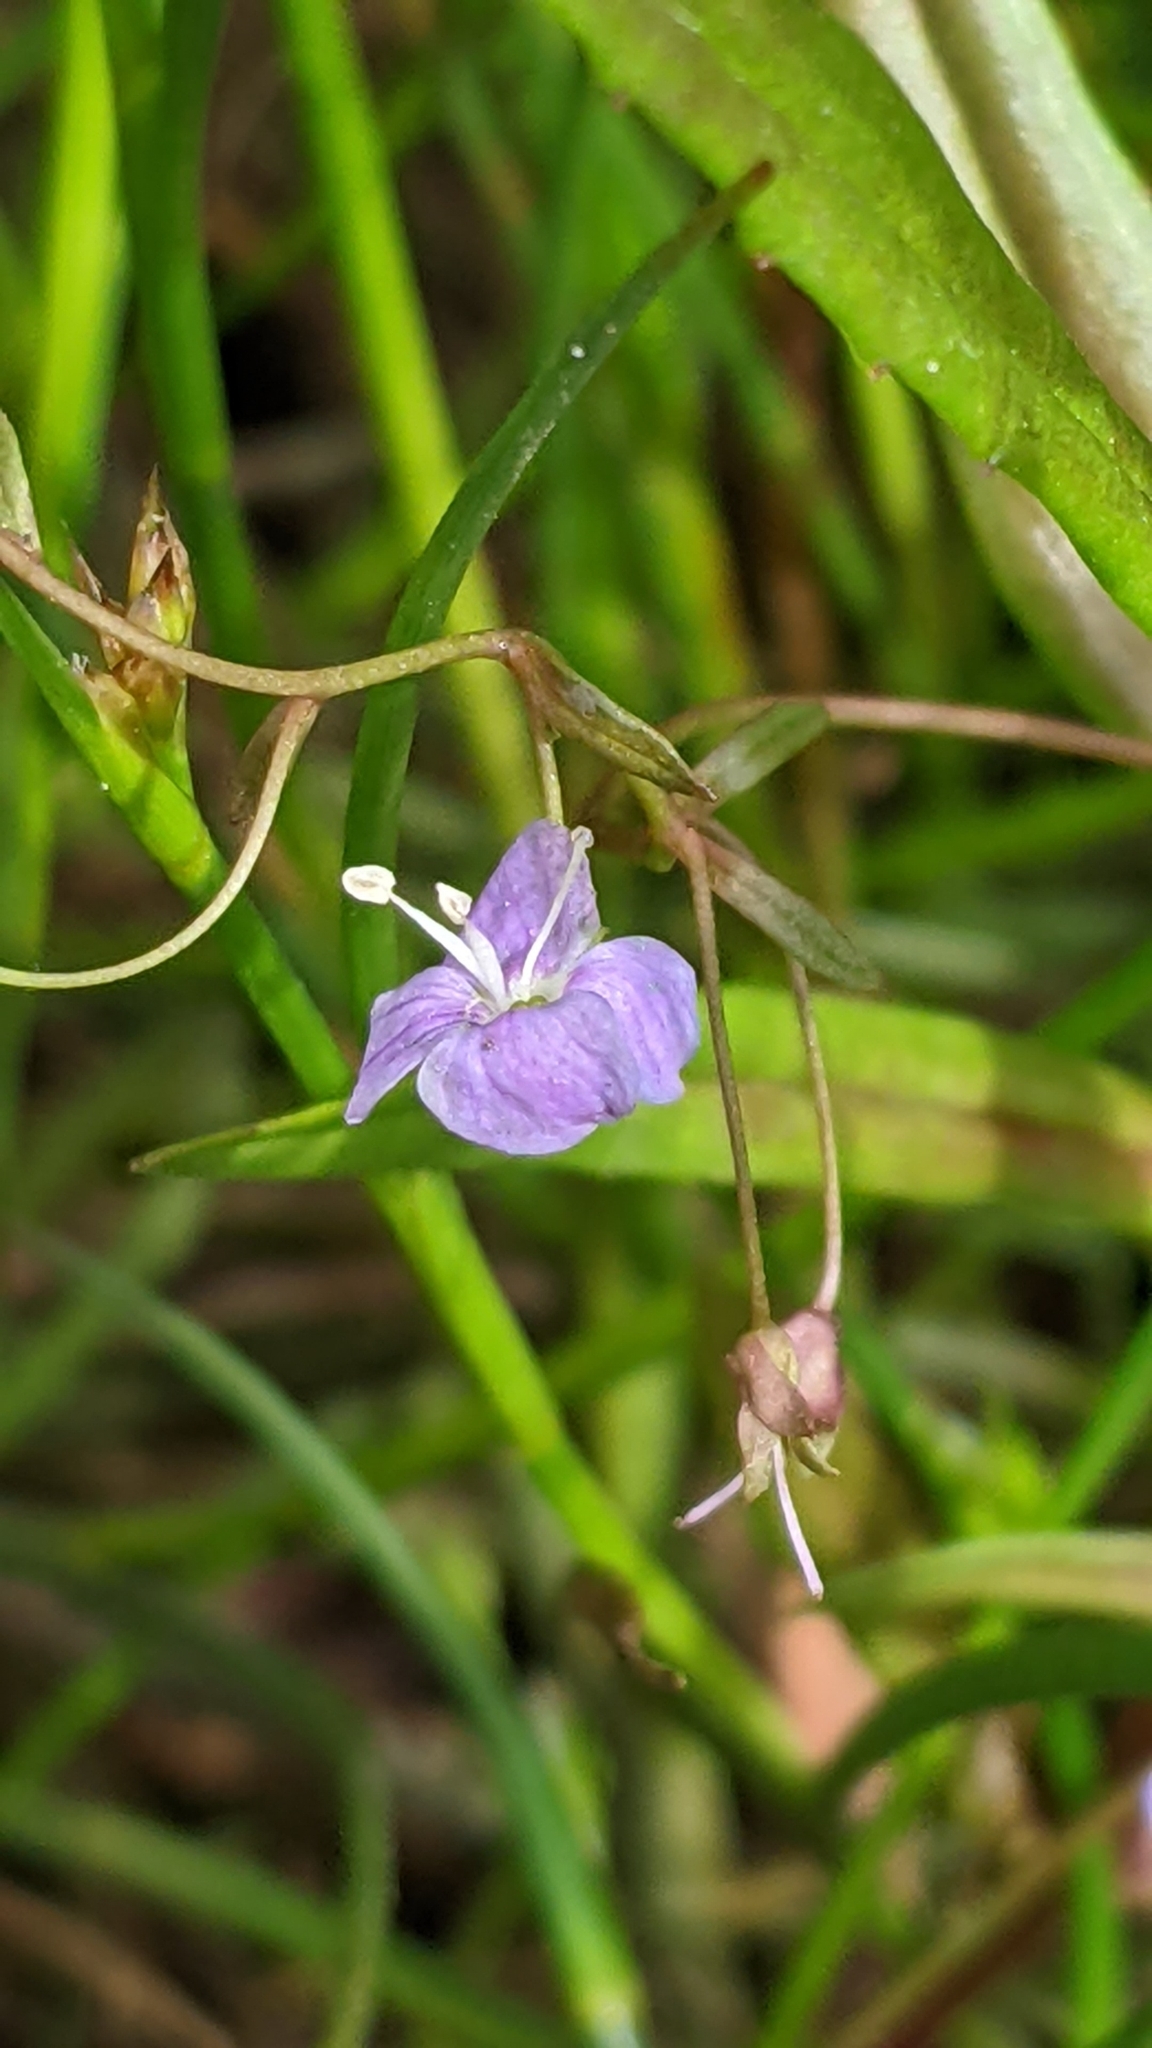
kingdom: Plantae
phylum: Tracheophyta
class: Magnoliopsida
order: Lamiales
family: Plantaginaceae
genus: Veronica
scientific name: Veronica scutellata
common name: Marsh speedwell
